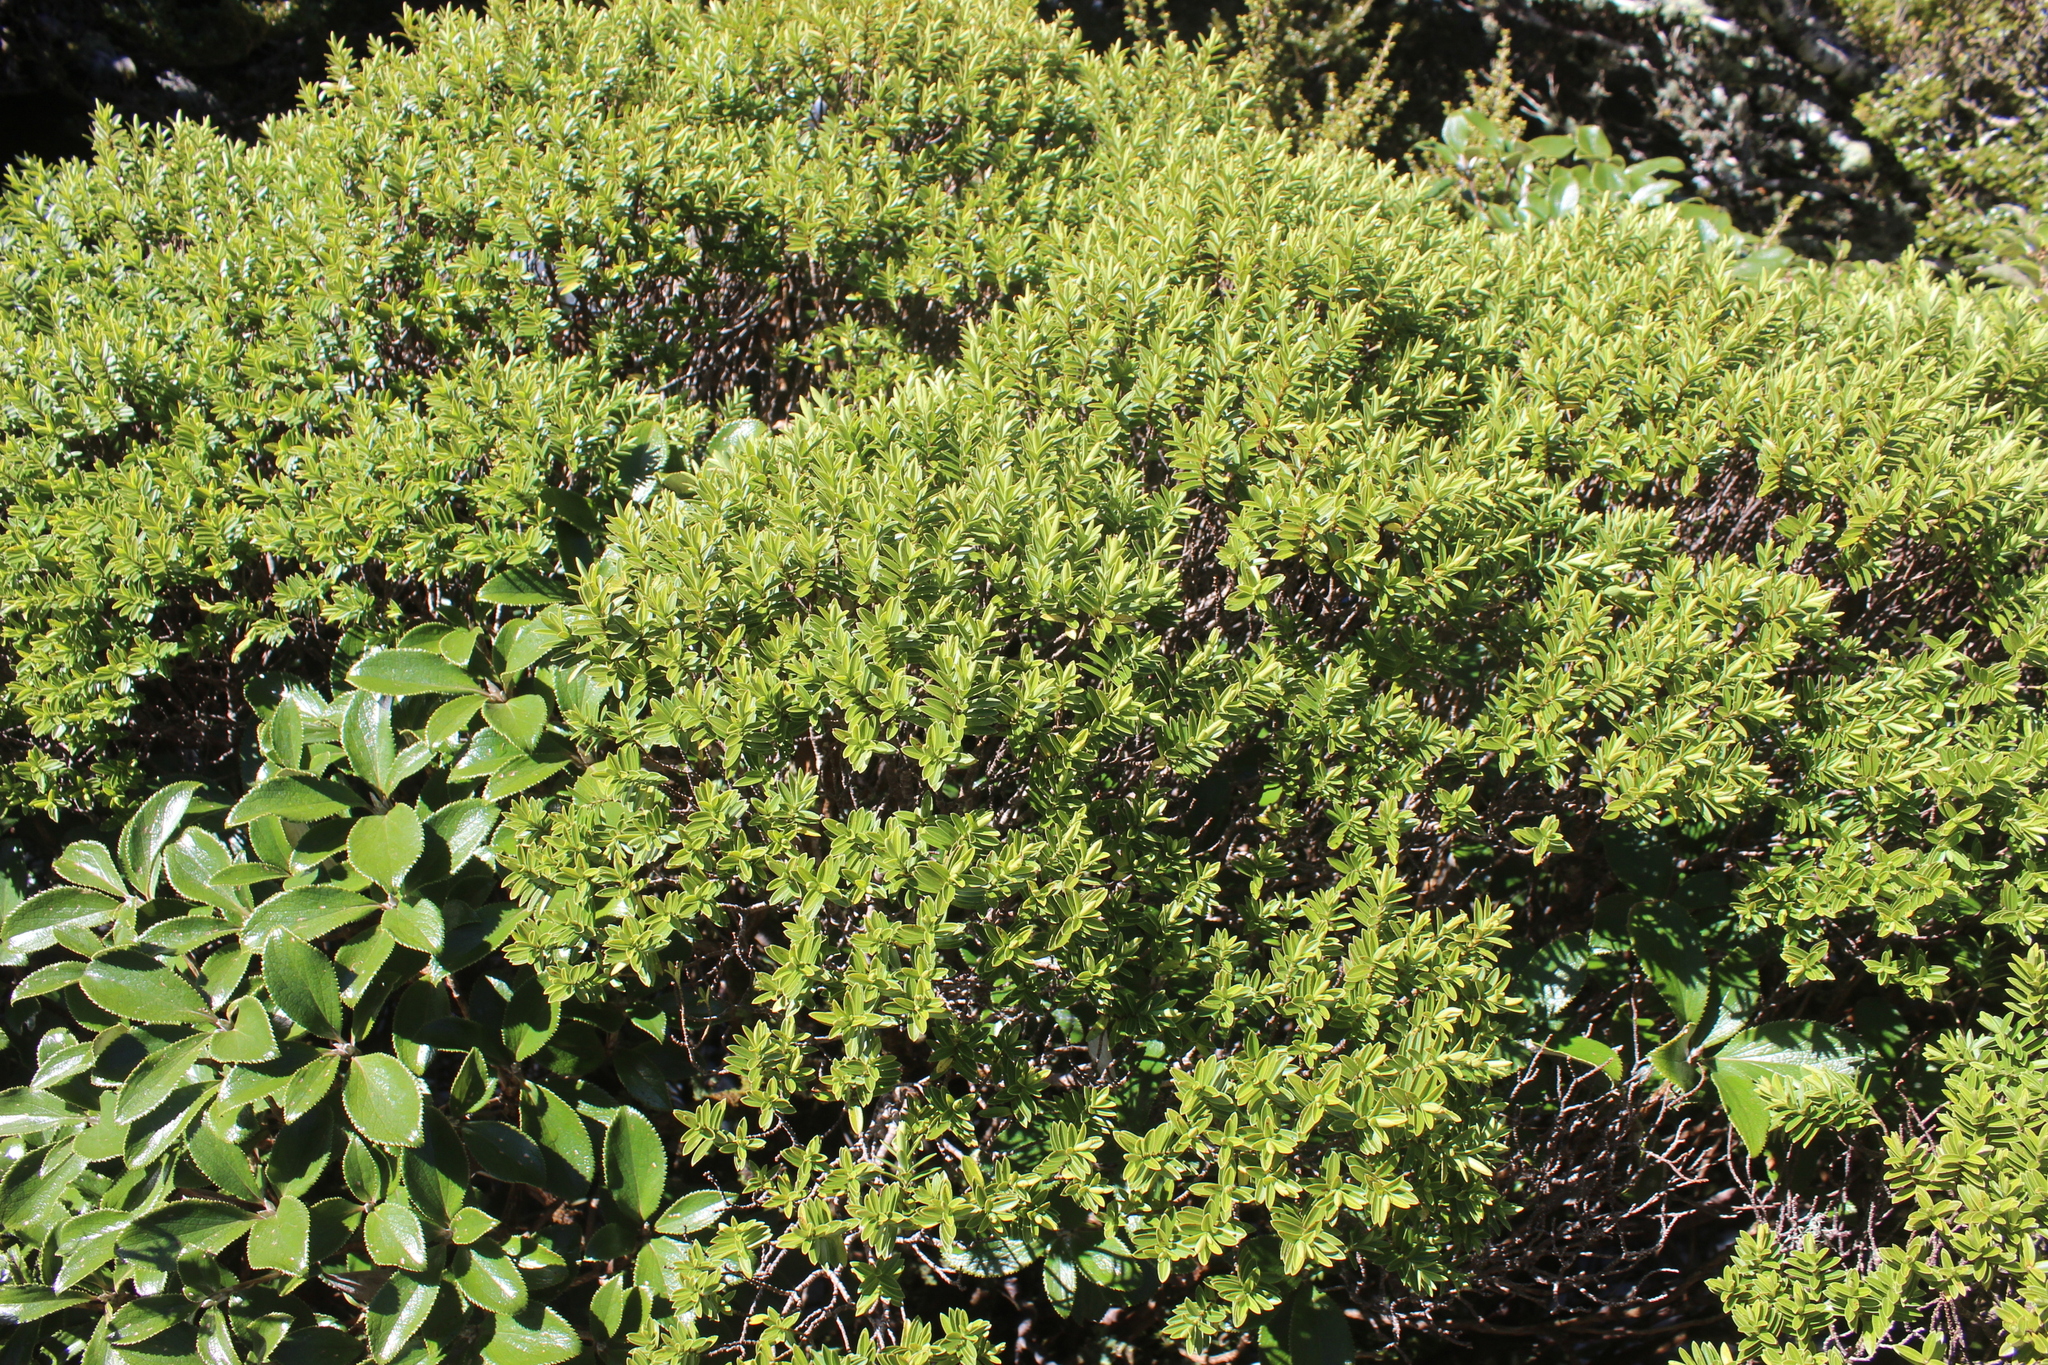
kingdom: Plantae
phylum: Tracheophyta
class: Magnoliopsida
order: Lamiales
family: Plantaginaceae
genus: Veronica
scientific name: Veronica evenosa
